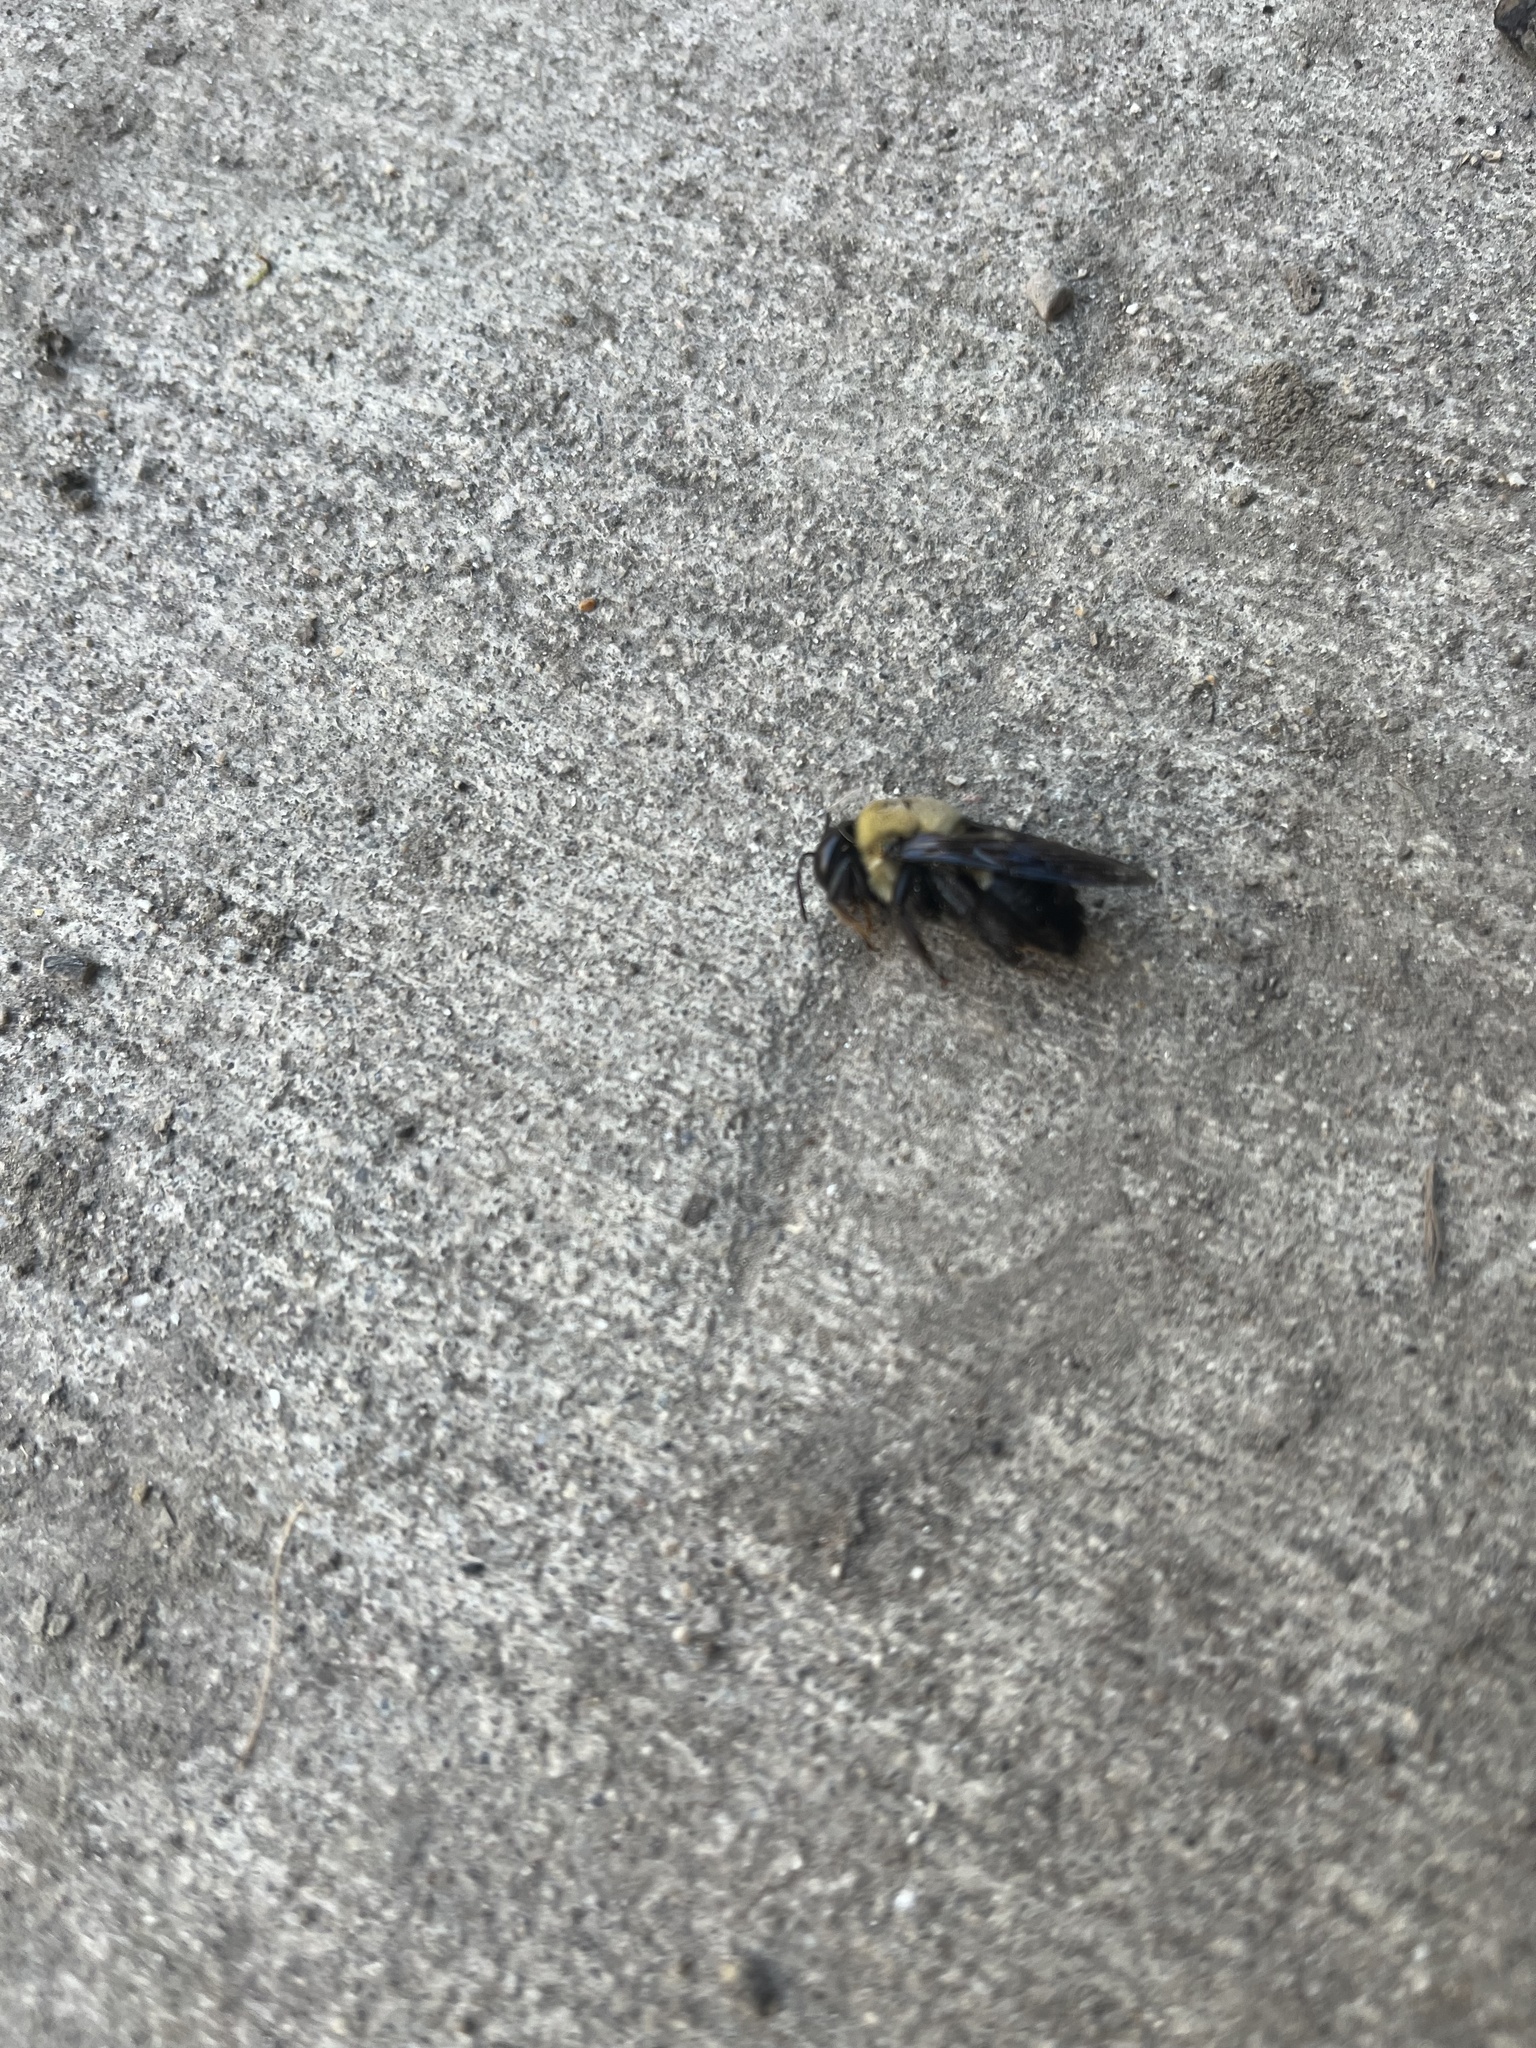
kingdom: Animalia
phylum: Arthropoda
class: Insecta
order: Hymenoptera
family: Apidae
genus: Xylocopa
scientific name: Xylocopa virginica
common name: Carpenter bee
